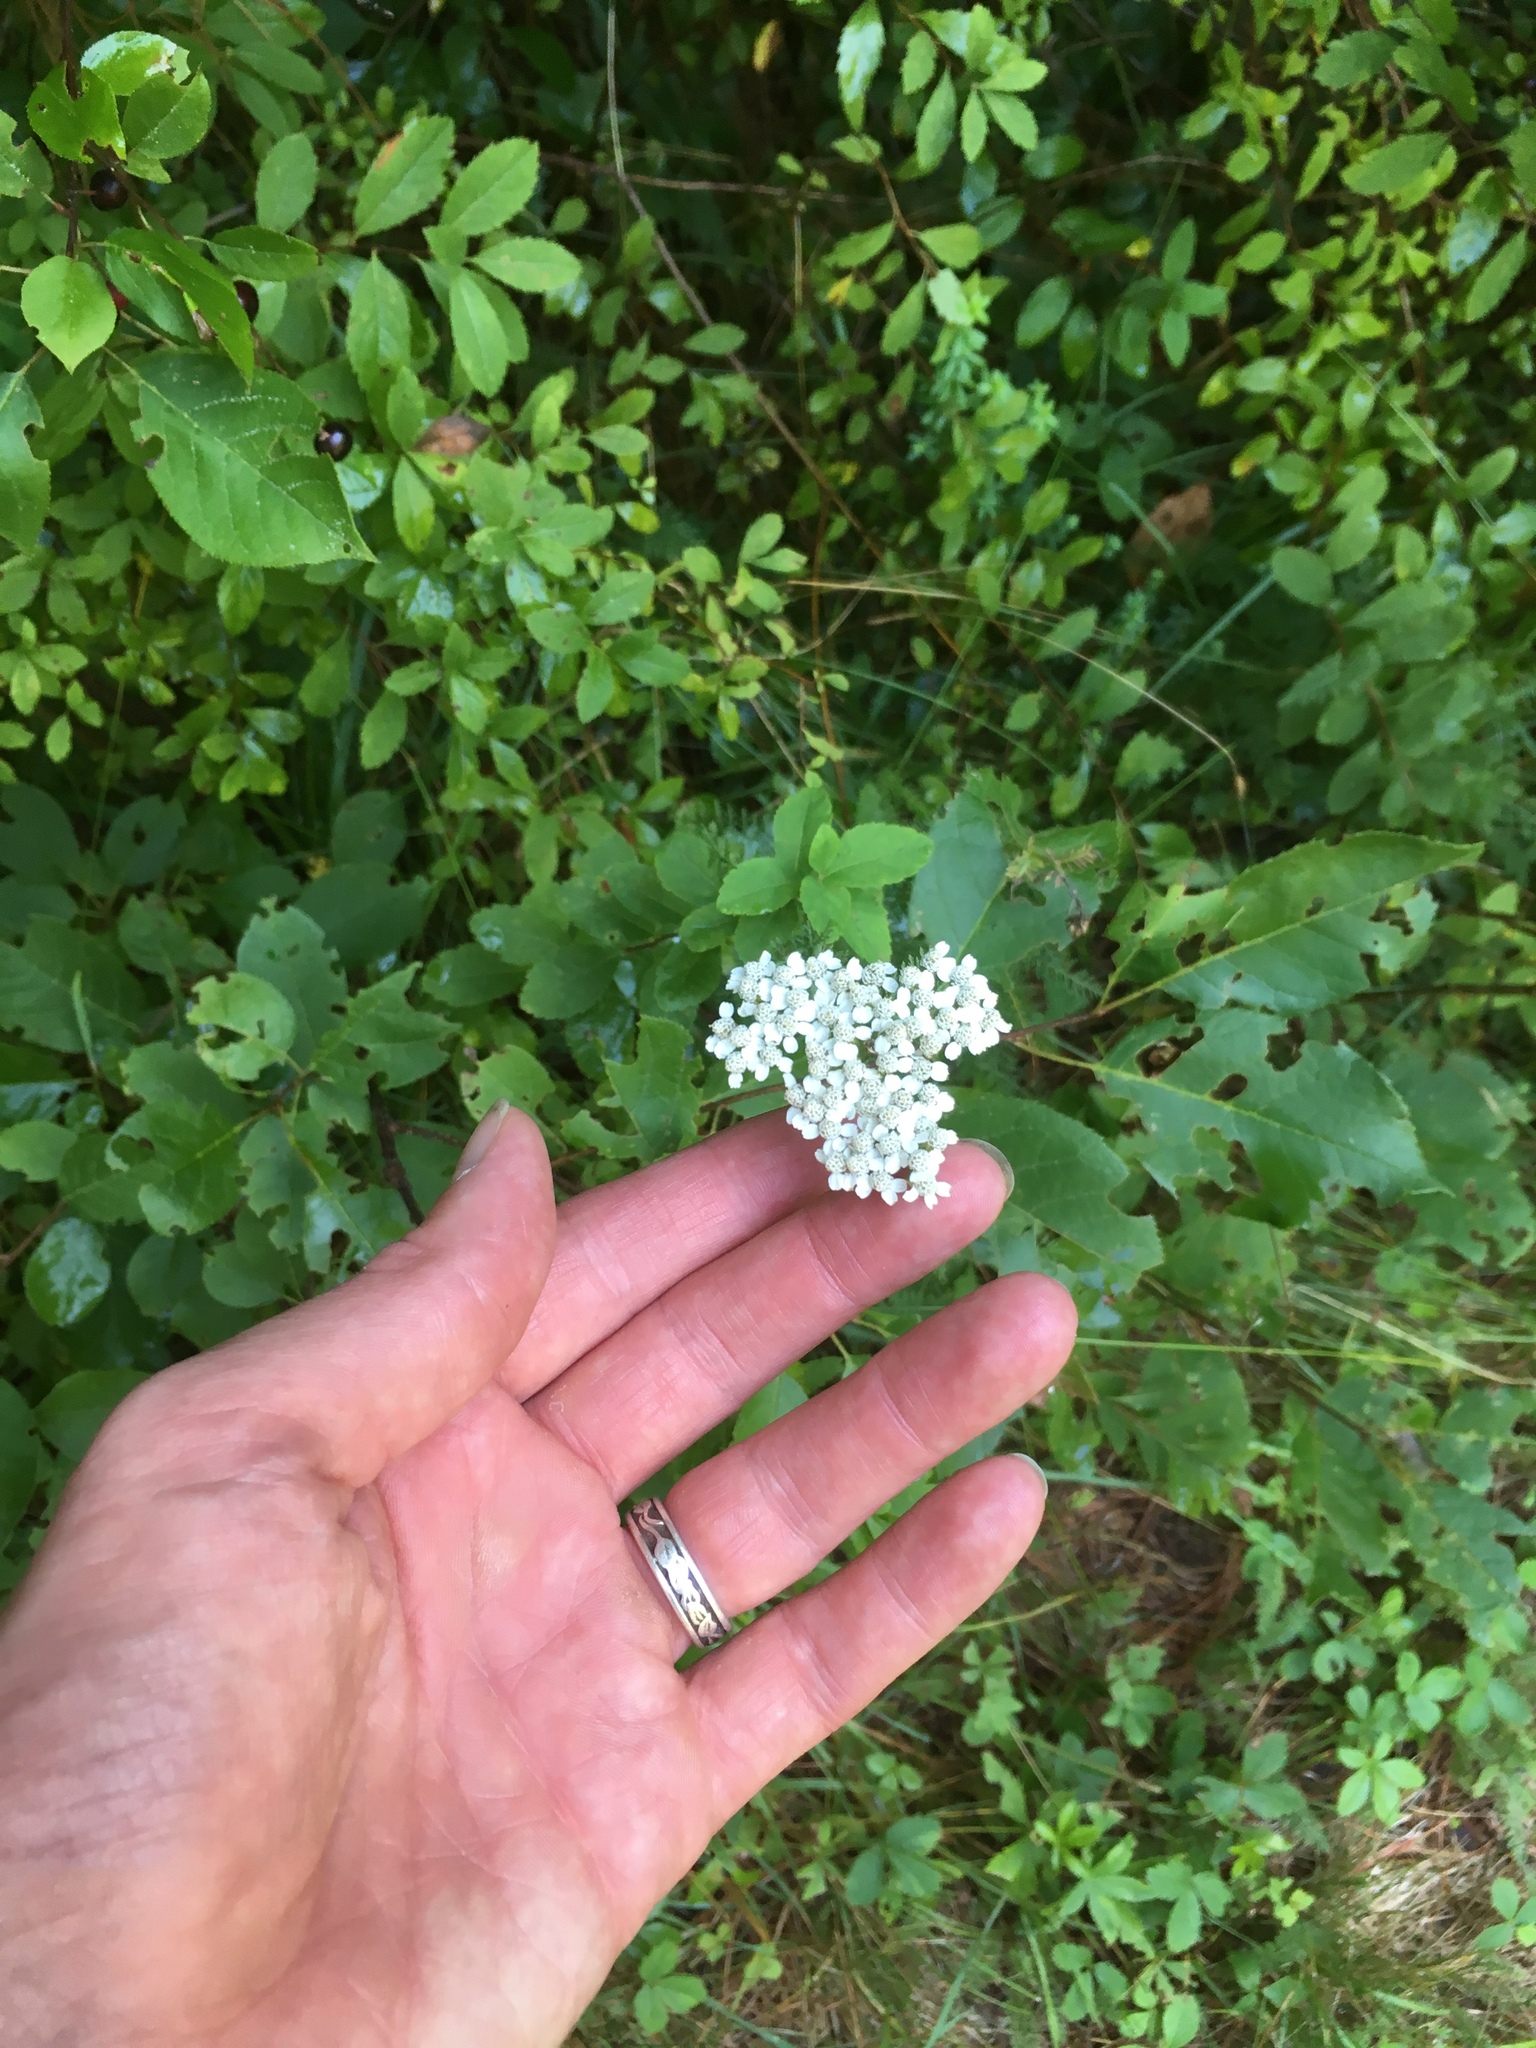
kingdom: Plantae
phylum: Tracheophyta
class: Magnoliopsida
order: Asterales
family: Asteraceae
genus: Achillea
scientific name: Achillea millefolium
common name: Yarrow
